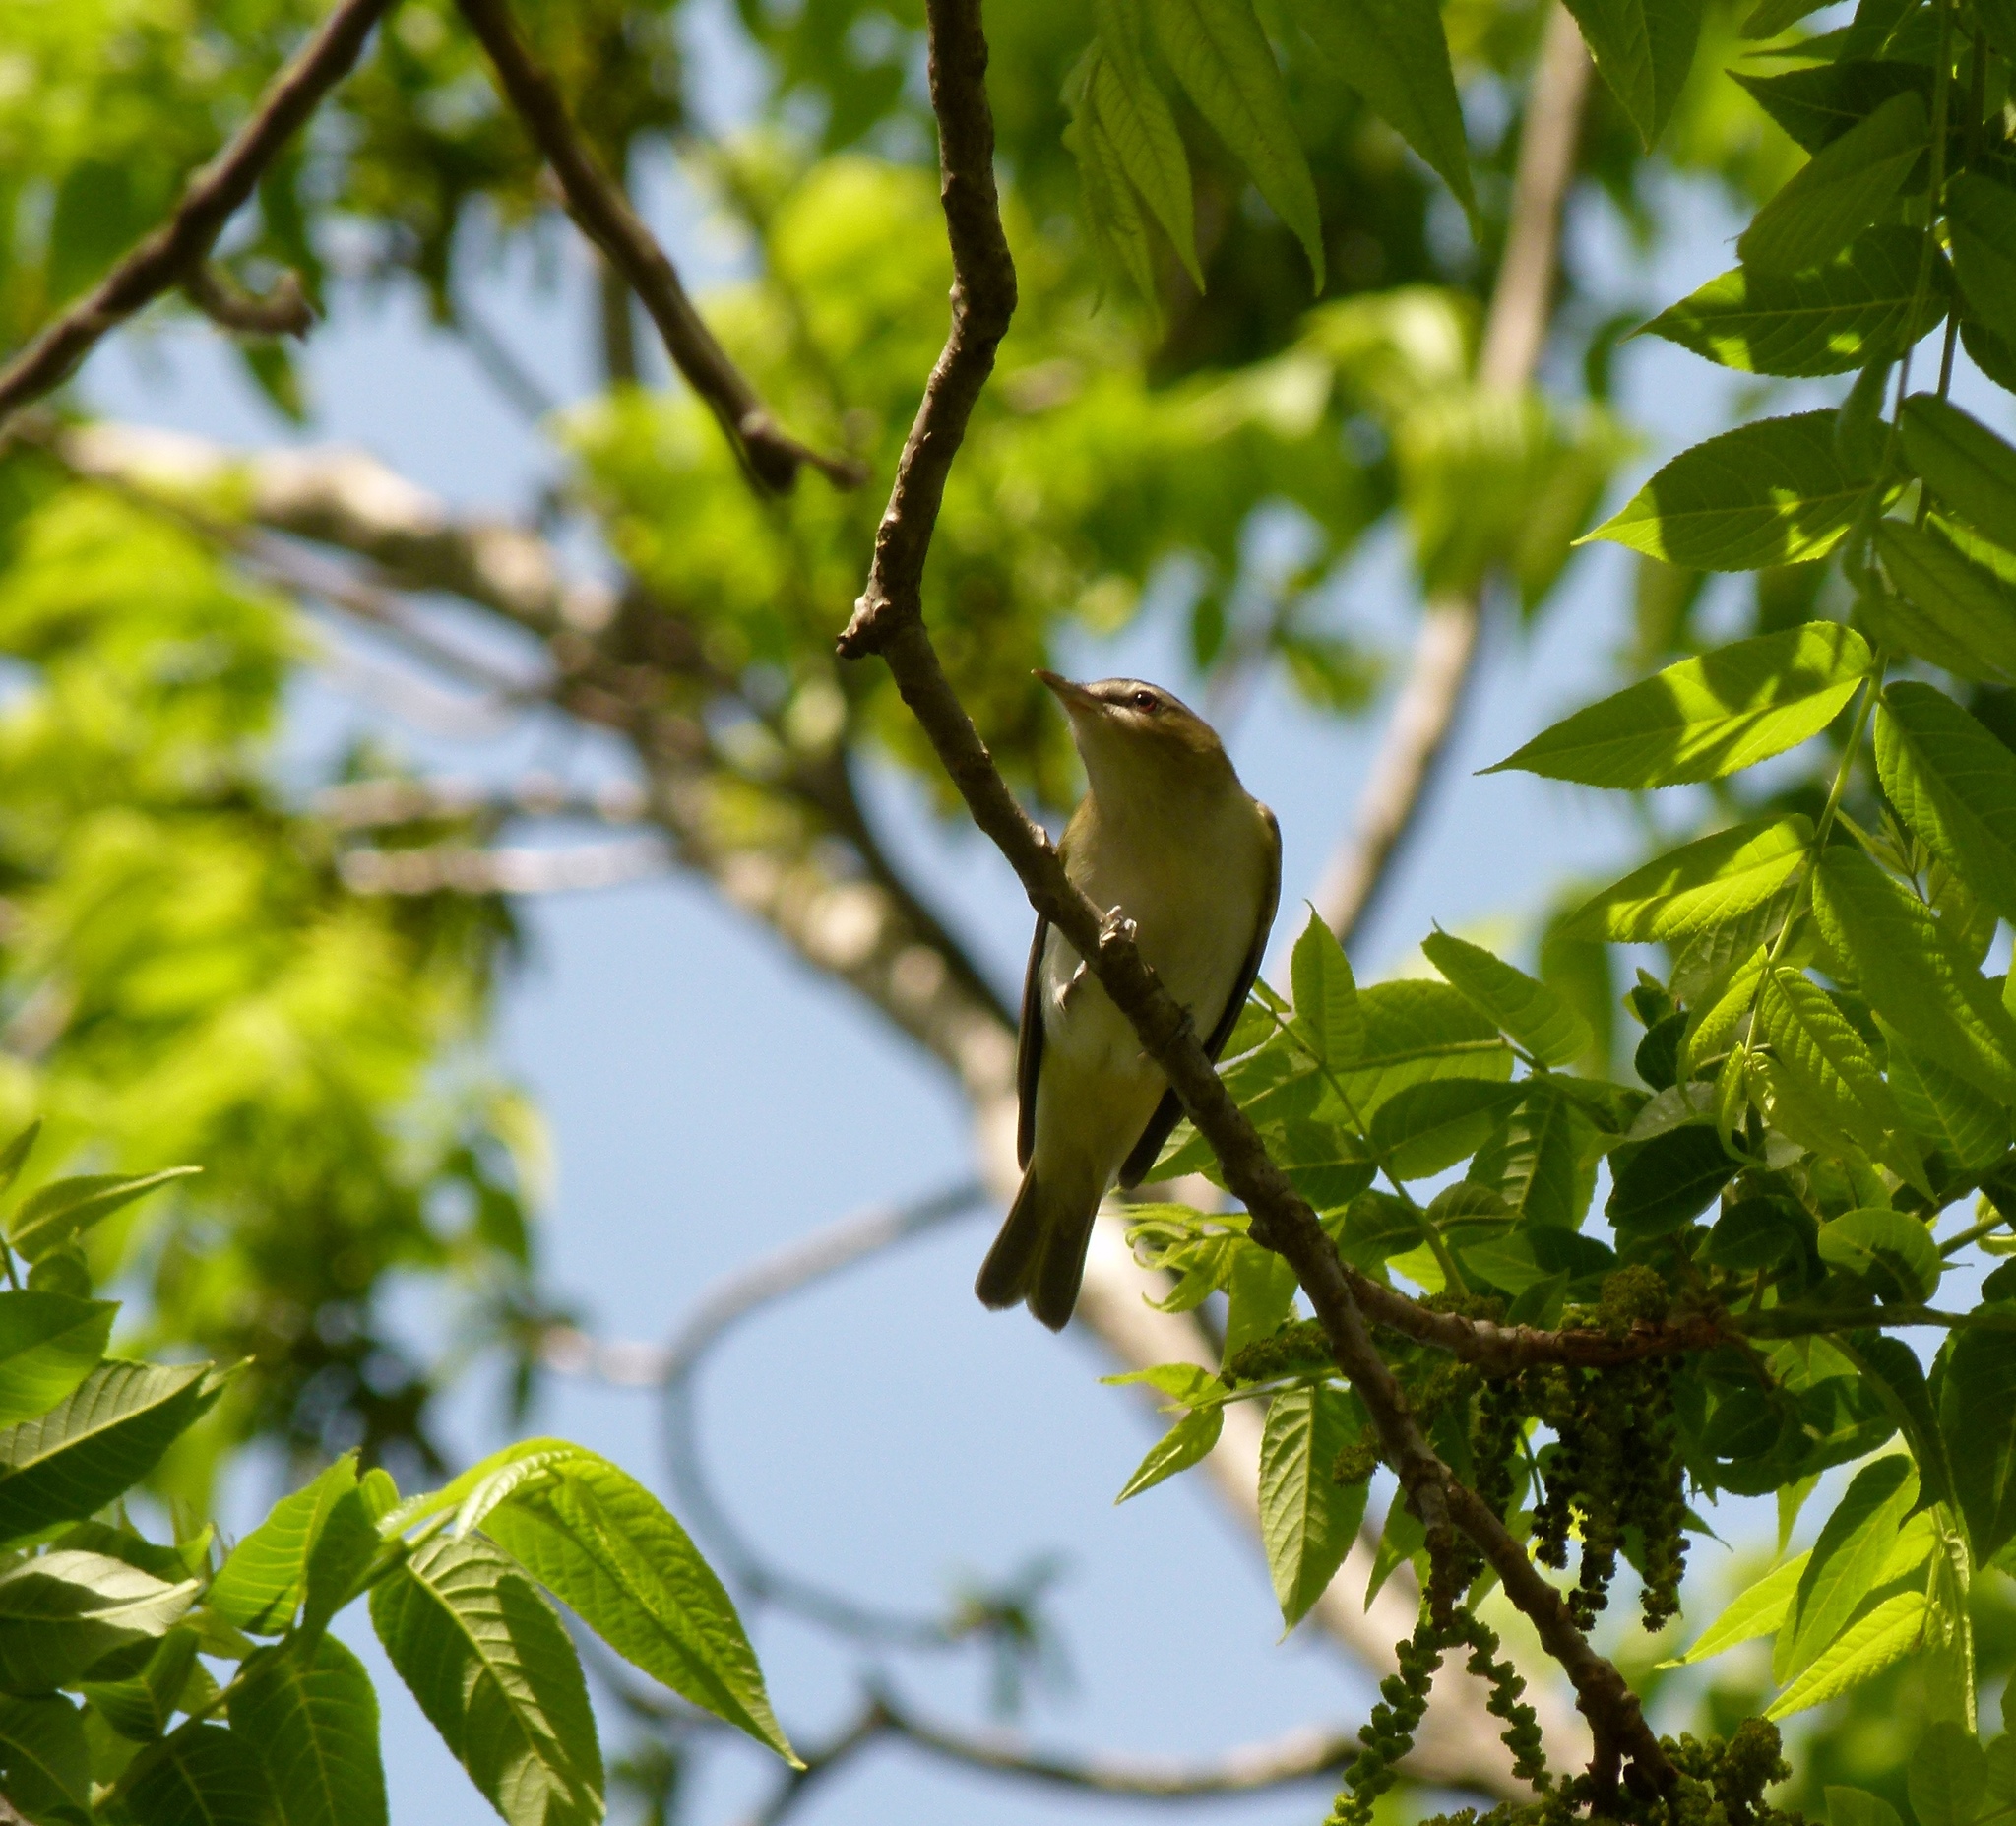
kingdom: Animalia
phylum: Chordata
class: Aves
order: Passeriformes
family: Vireonidae
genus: Vireo
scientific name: Vireo olivaceus
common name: Red-eyed vireo
